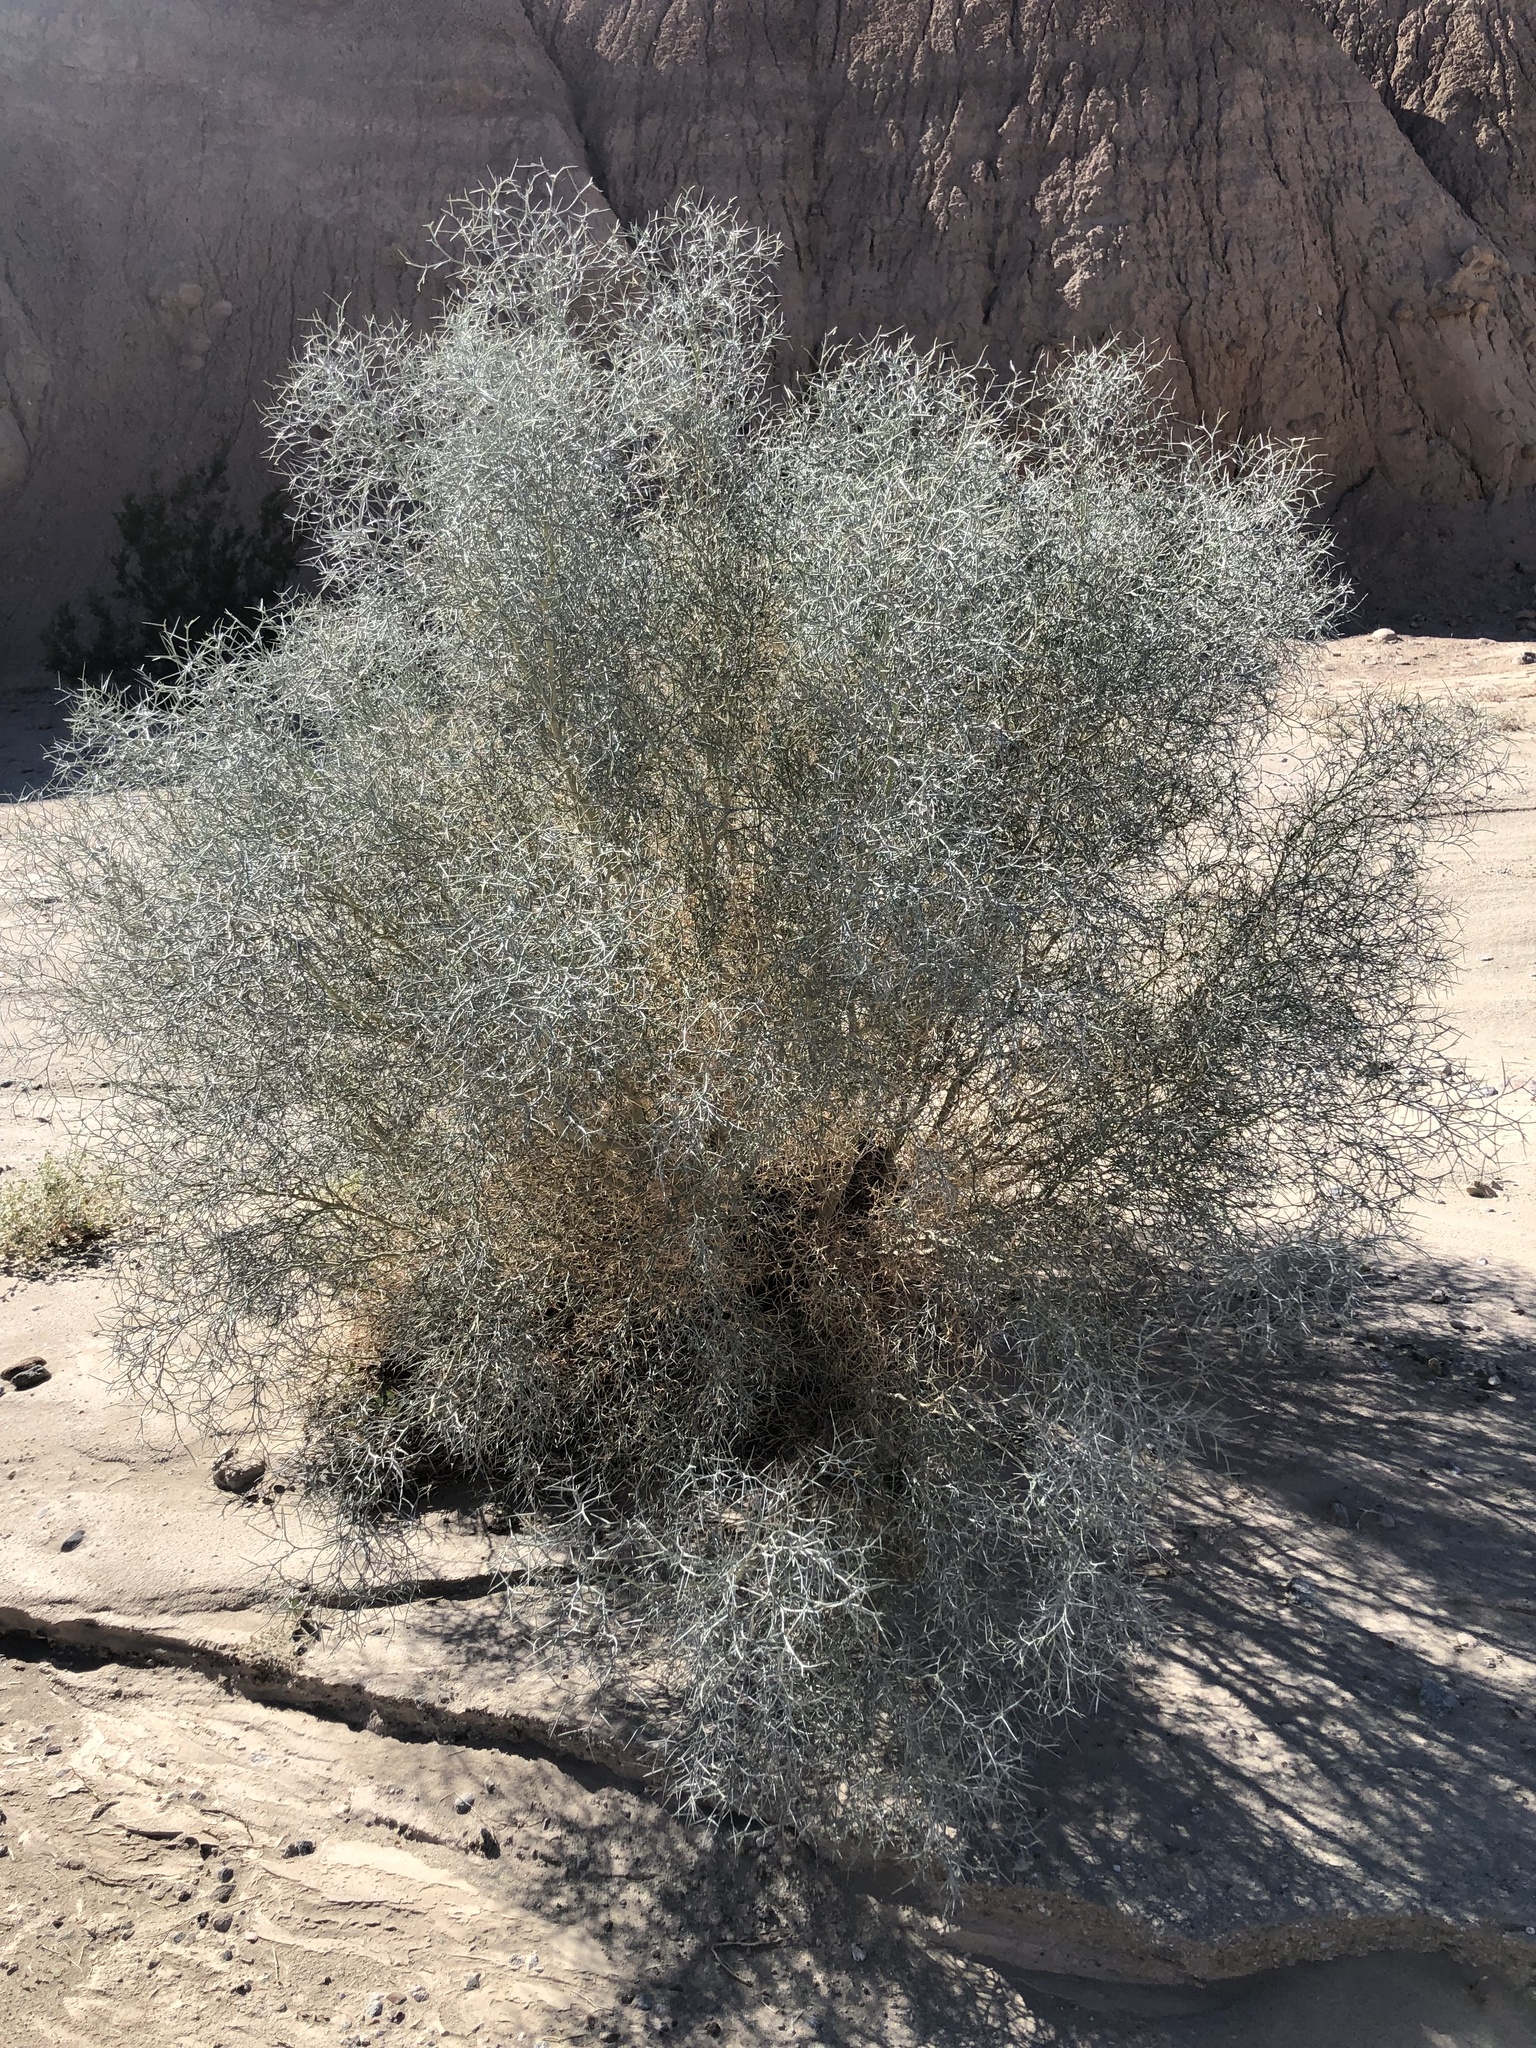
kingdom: Plantae
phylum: Tracheophyta
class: Magnoliopsida
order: Fabales
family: Fabaceae
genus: Psorothamnus
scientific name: Psorothamnus spinosus
